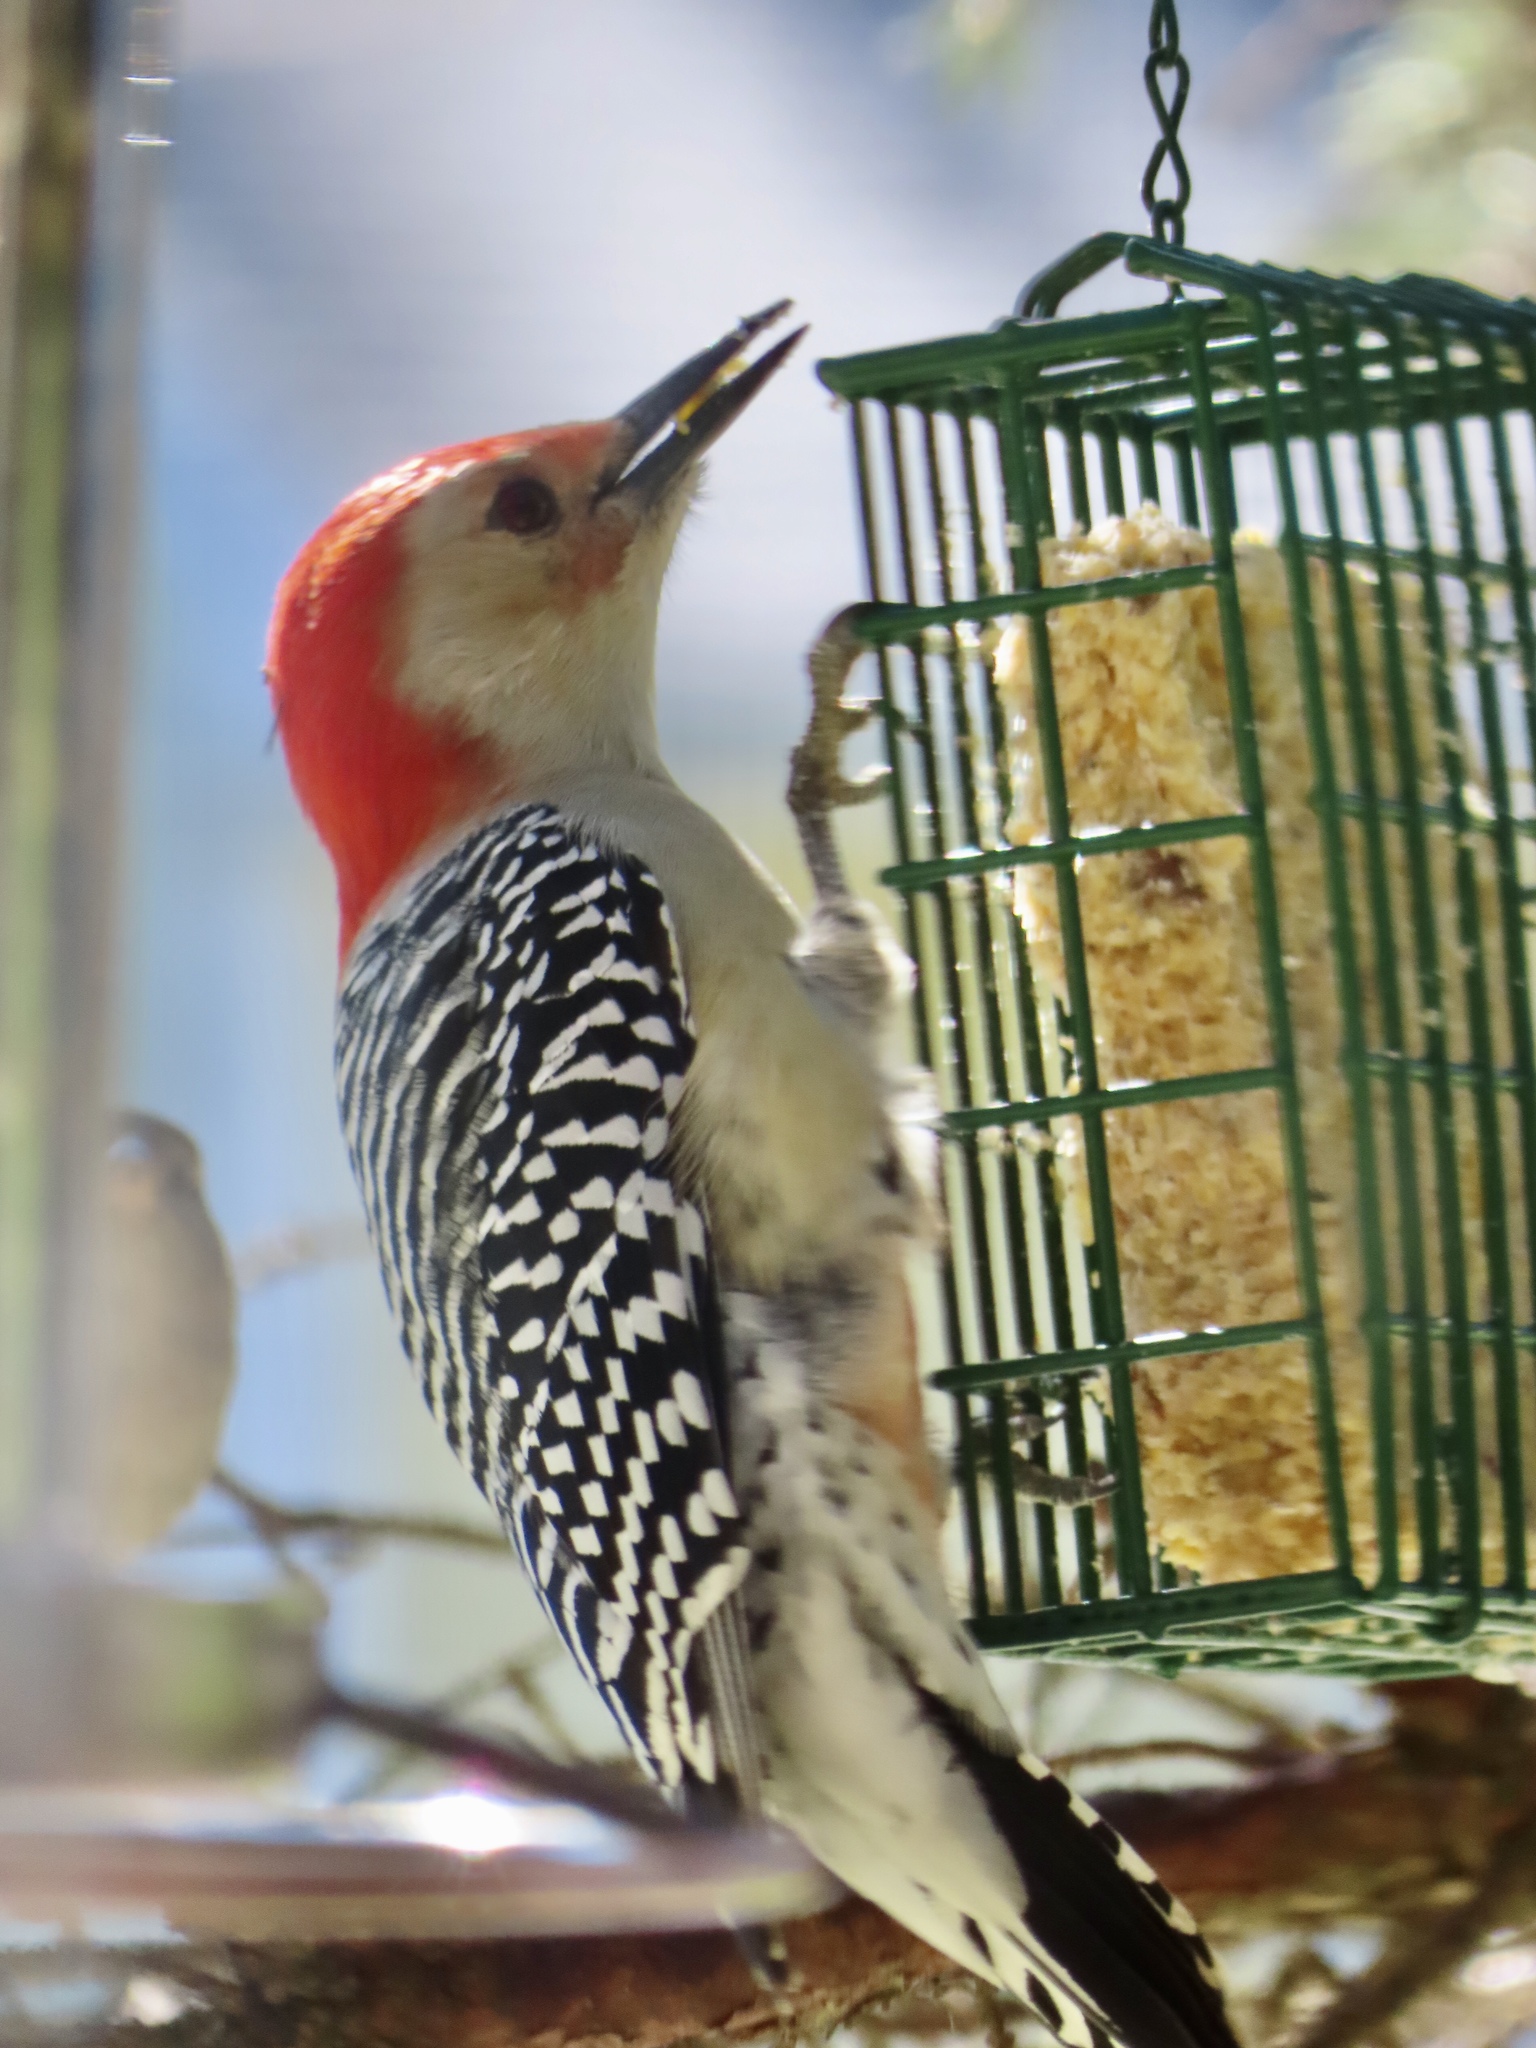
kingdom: Animalia
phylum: Chordata
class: Aves
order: Piciformes
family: Picidae
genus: Melanerpes
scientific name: Melanerpes carolinus
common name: Red-bellied woodpecker
